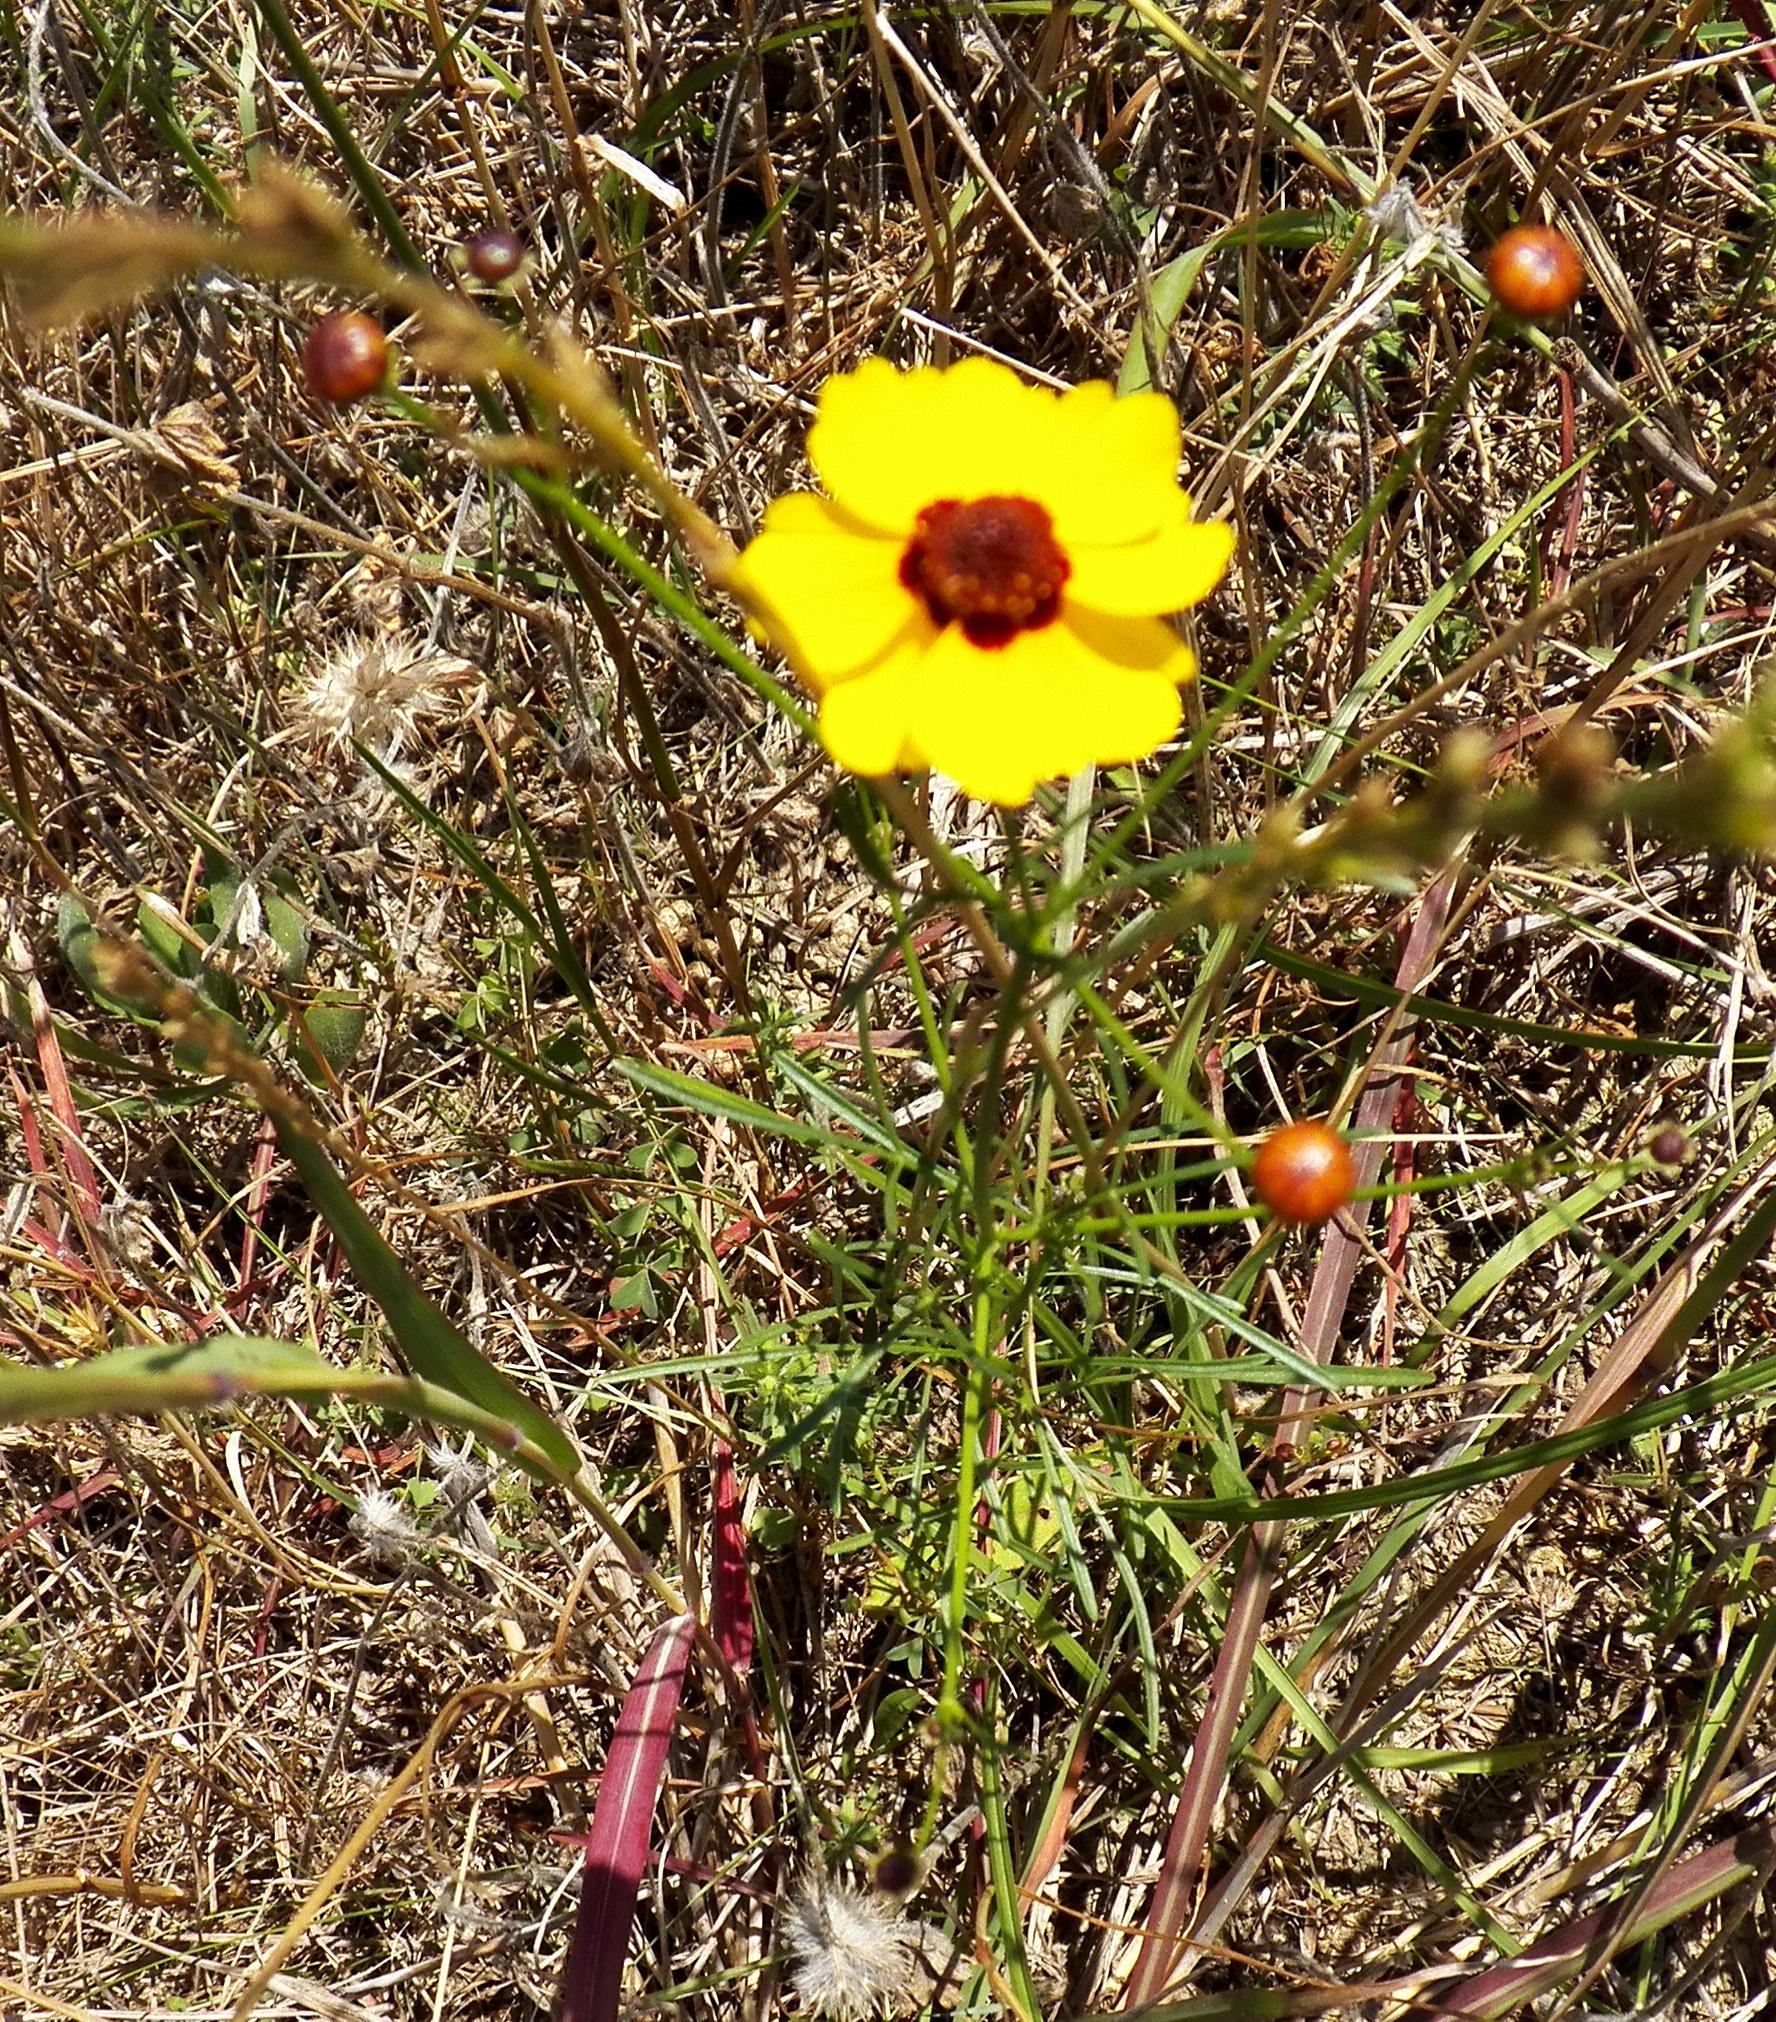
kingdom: Plantae
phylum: Tracheophyta
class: Magnoliopsida
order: Asterales
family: Asteraceae
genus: Coreopsis
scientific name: Coreopsis tinctoria
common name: Garden tickseed
